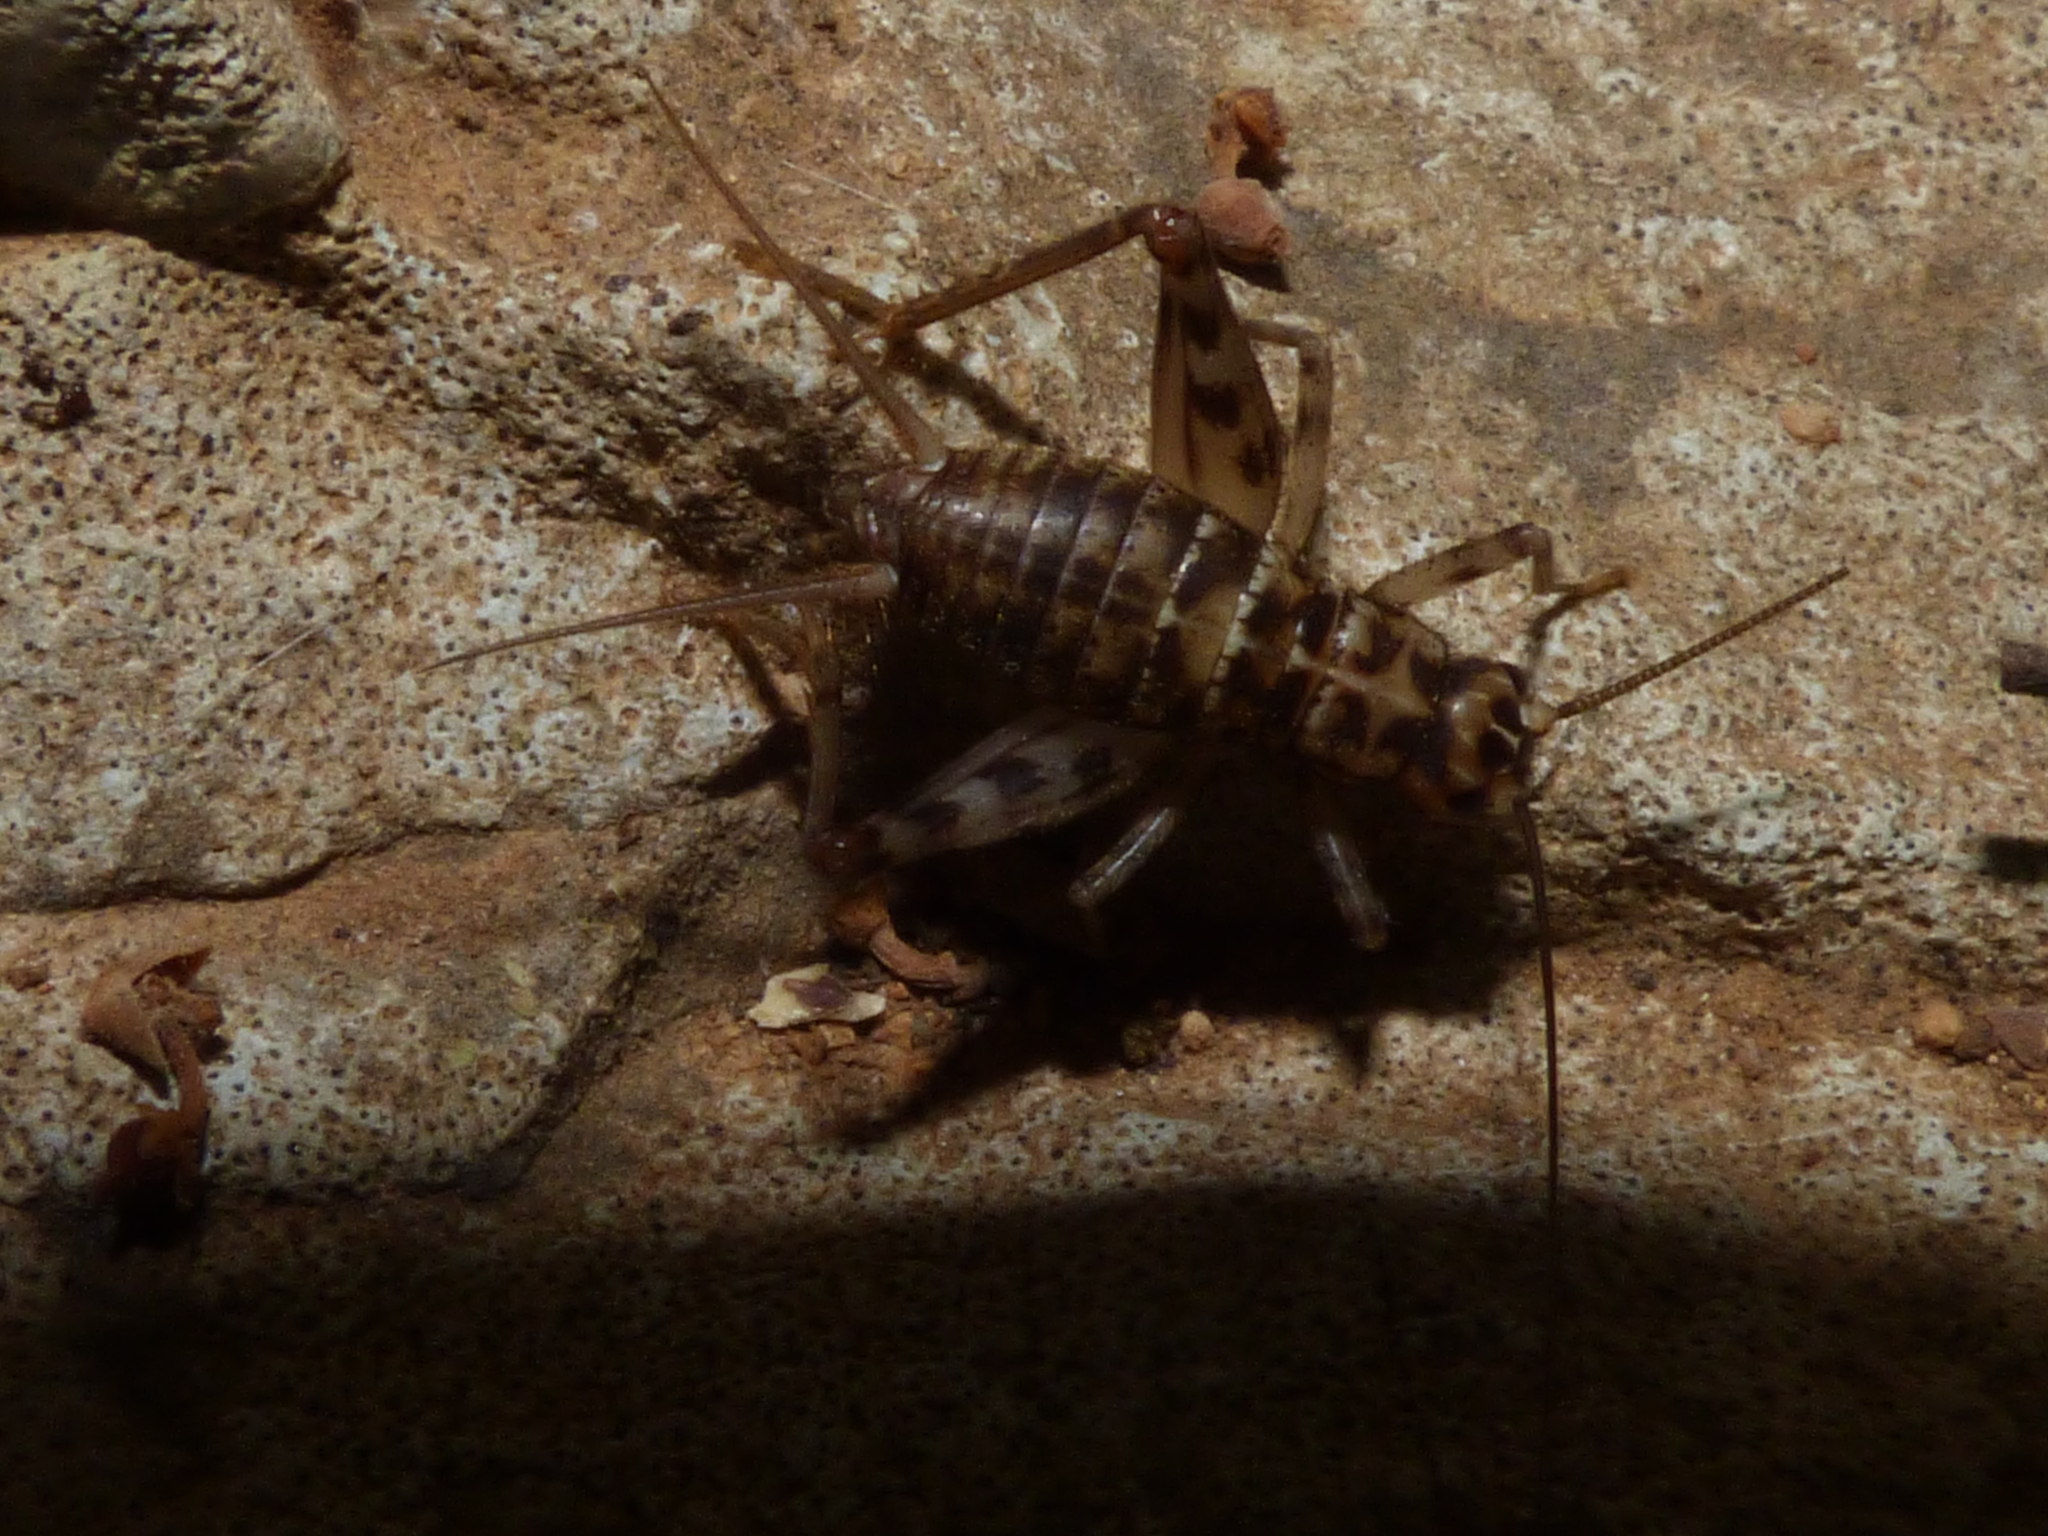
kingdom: Animalia
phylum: Arthropoda
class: Insecta
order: Orthoptera
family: Gryllidae
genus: Gryllomorpha
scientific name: Gryllomorpha dalmatina
